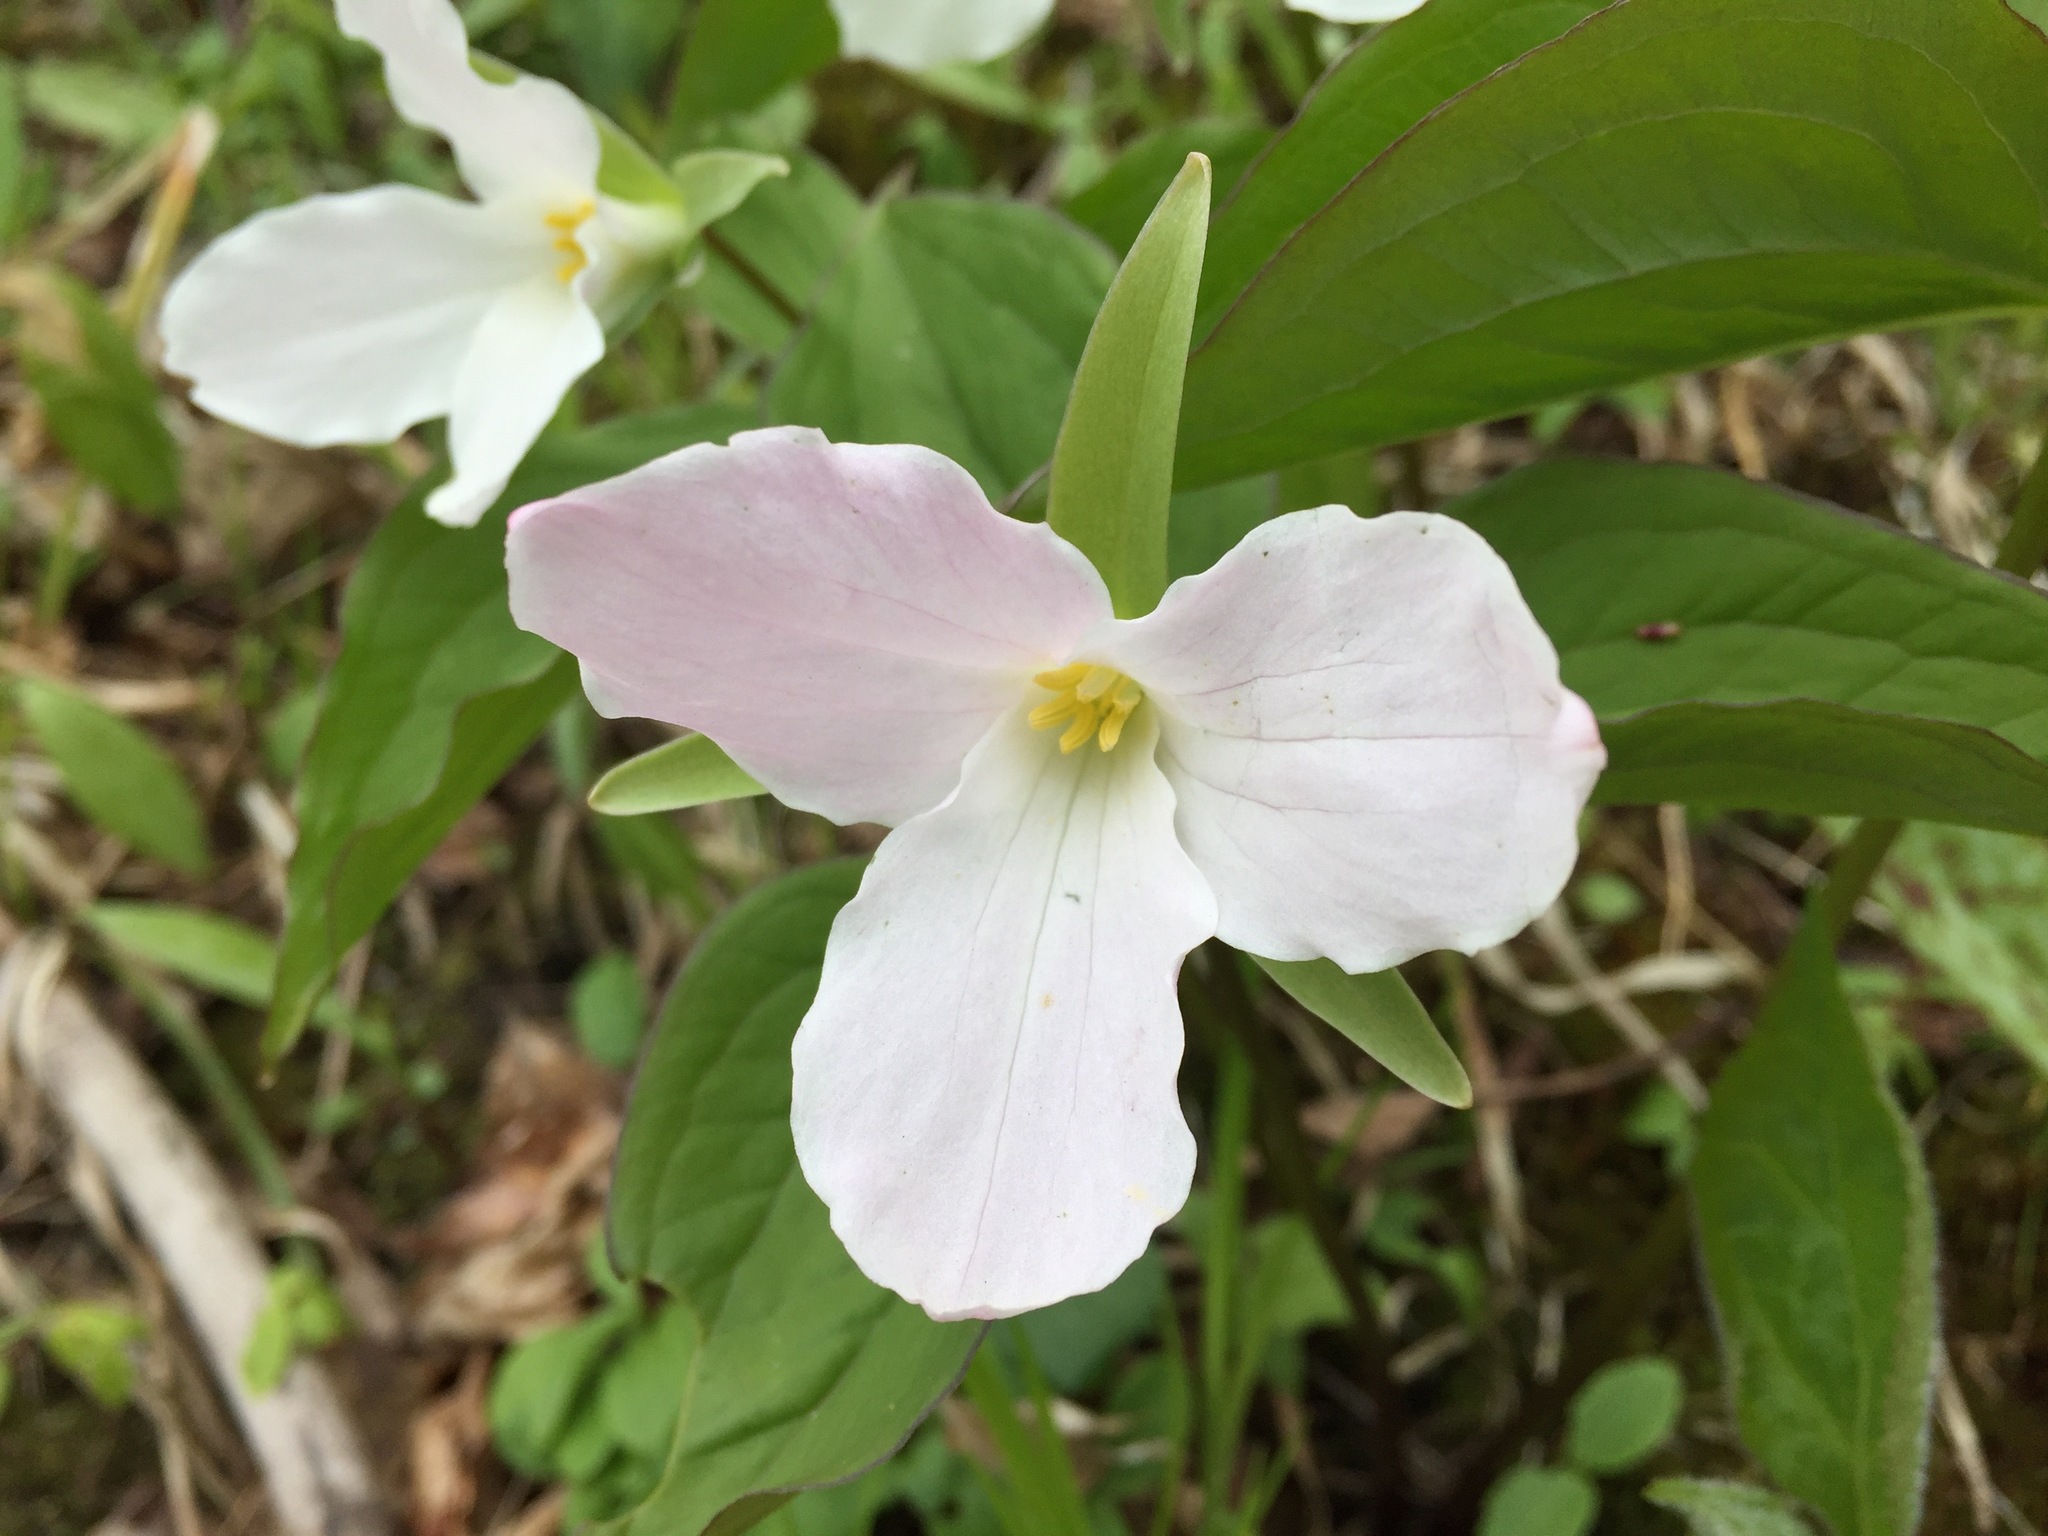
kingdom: Plantae
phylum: Tracheophyta
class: Liliopsida
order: Liliales
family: Melanthiaceae
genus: Trillium
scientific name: Trillium grandiflorum
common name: Great white trillium
